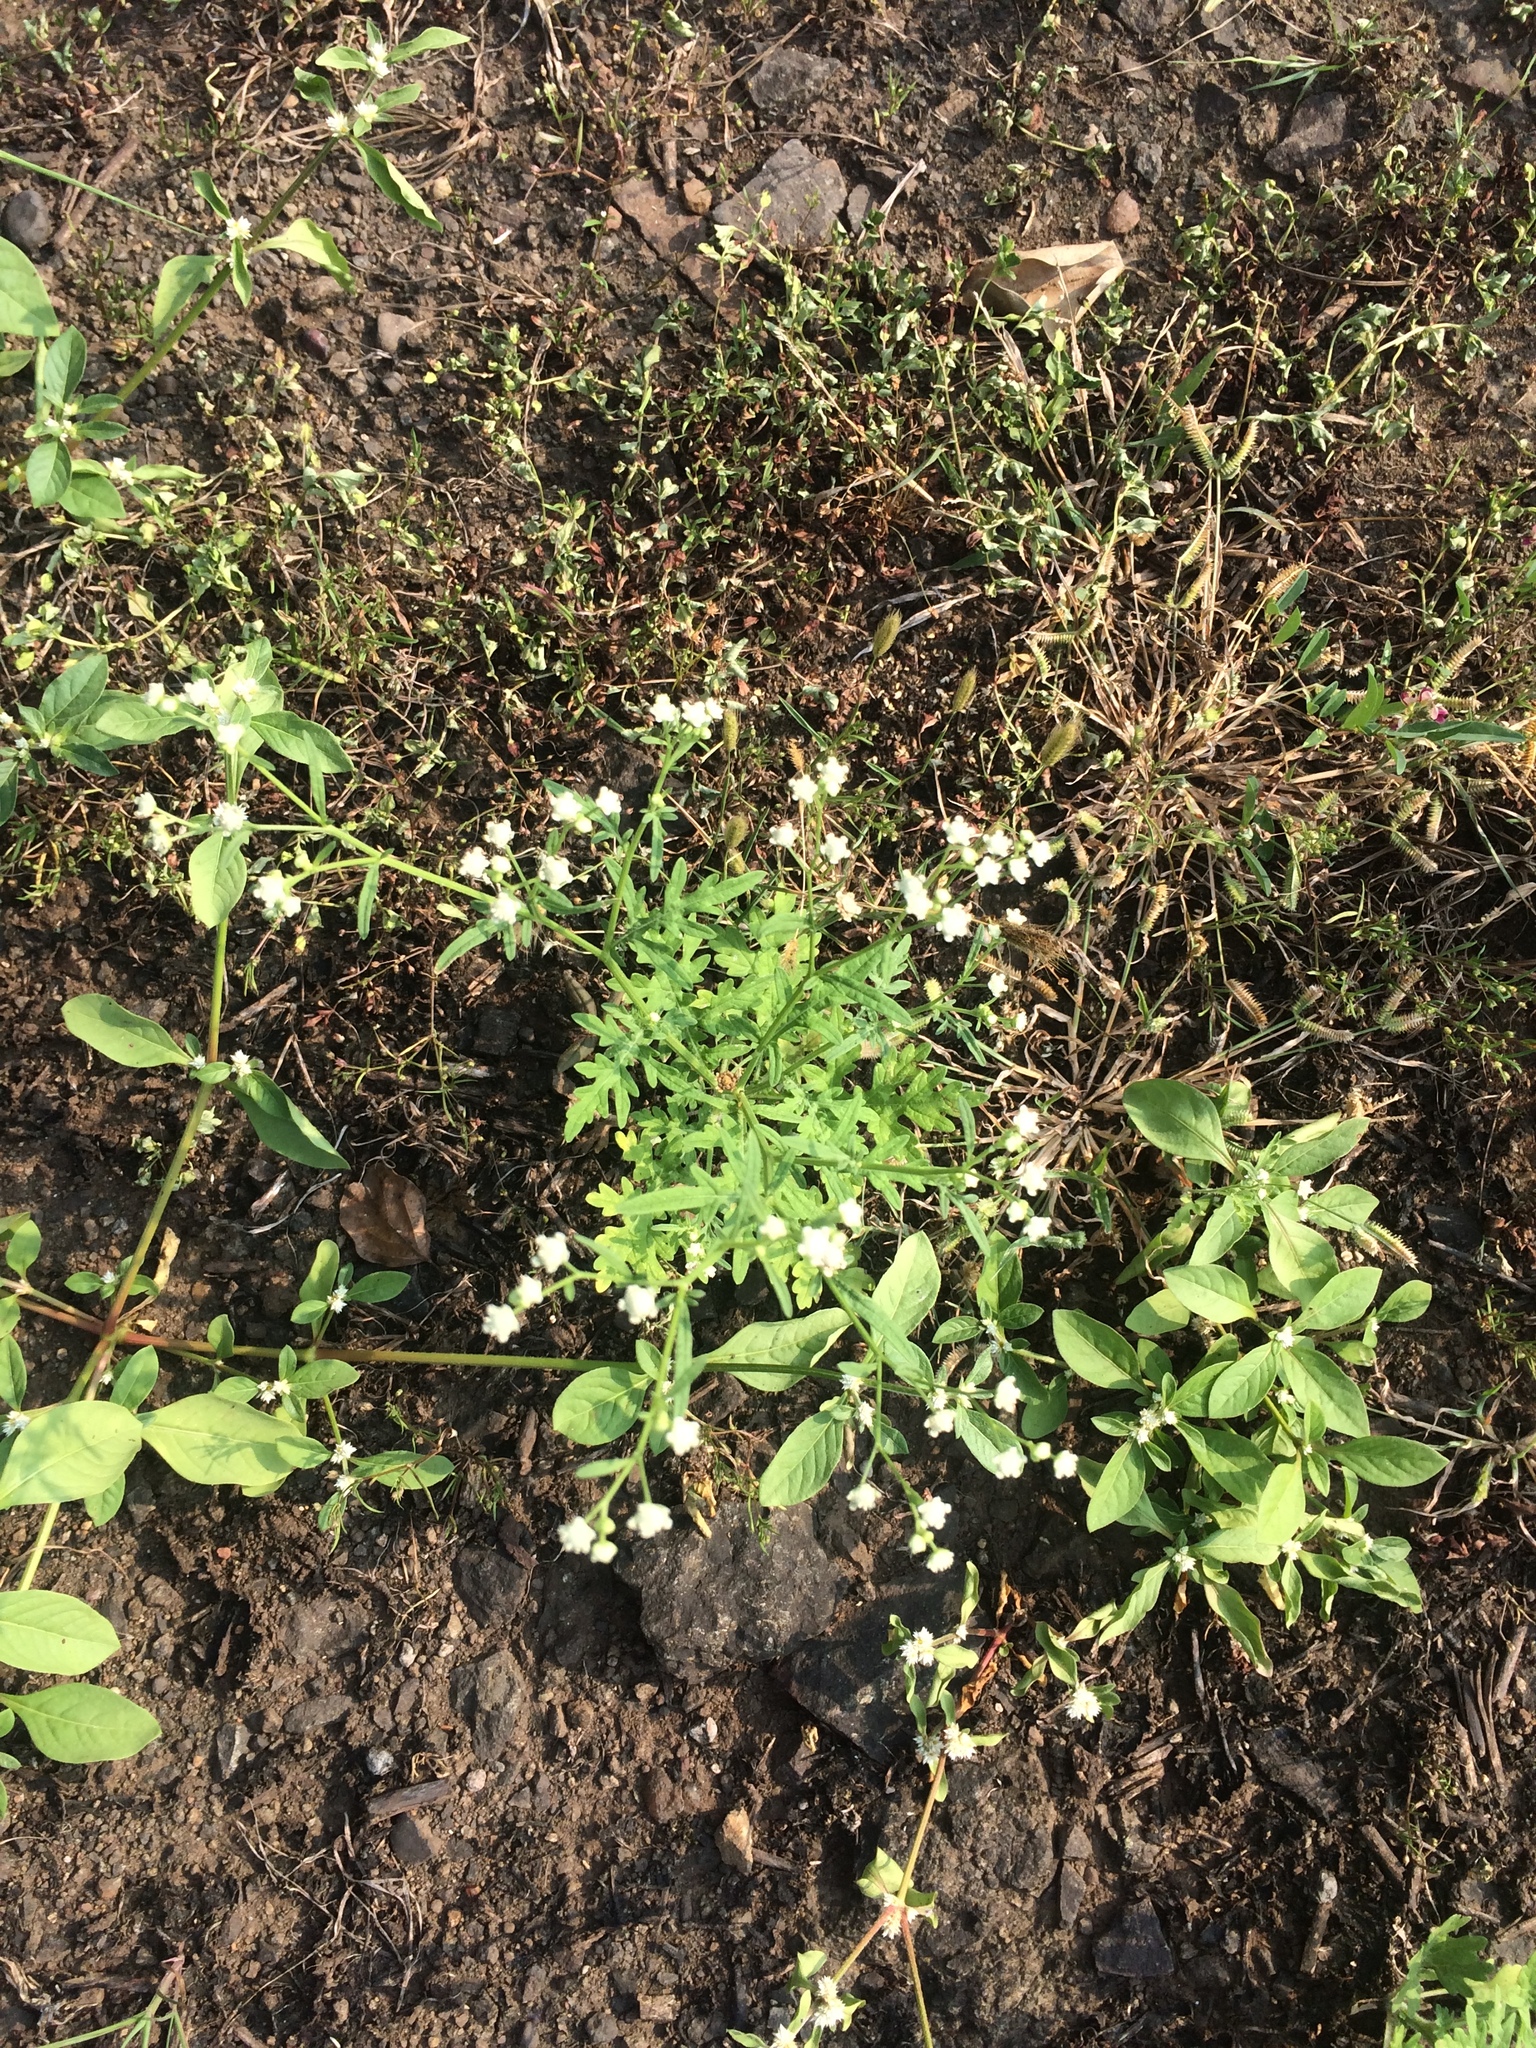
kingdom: Plantae
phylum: Tracheophyta
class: Magnoliopsida
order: Asterales
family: Asteraceae
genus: Parthenium
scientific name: Parthenium hysterophorus
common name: Santa maria feverfew
